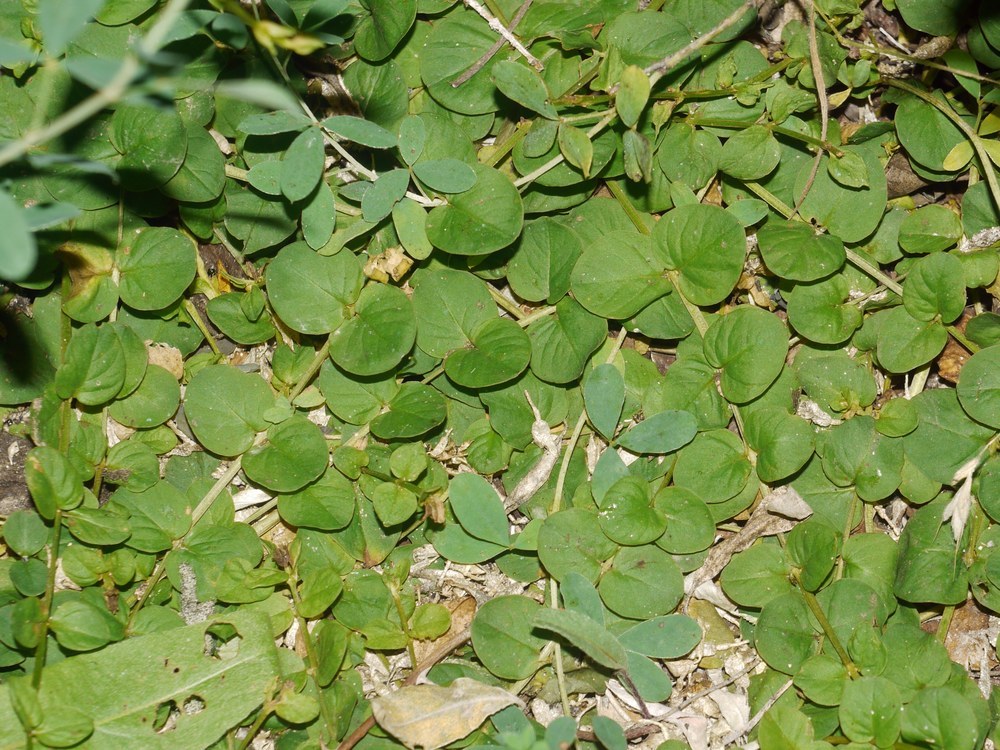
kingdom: Plantae
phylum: Tracheophyta
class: Magnoliopsida
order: Ericales
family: Primulaceae
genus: Lysimachia
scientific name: Lysimachia nummularia
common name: Moneywort
